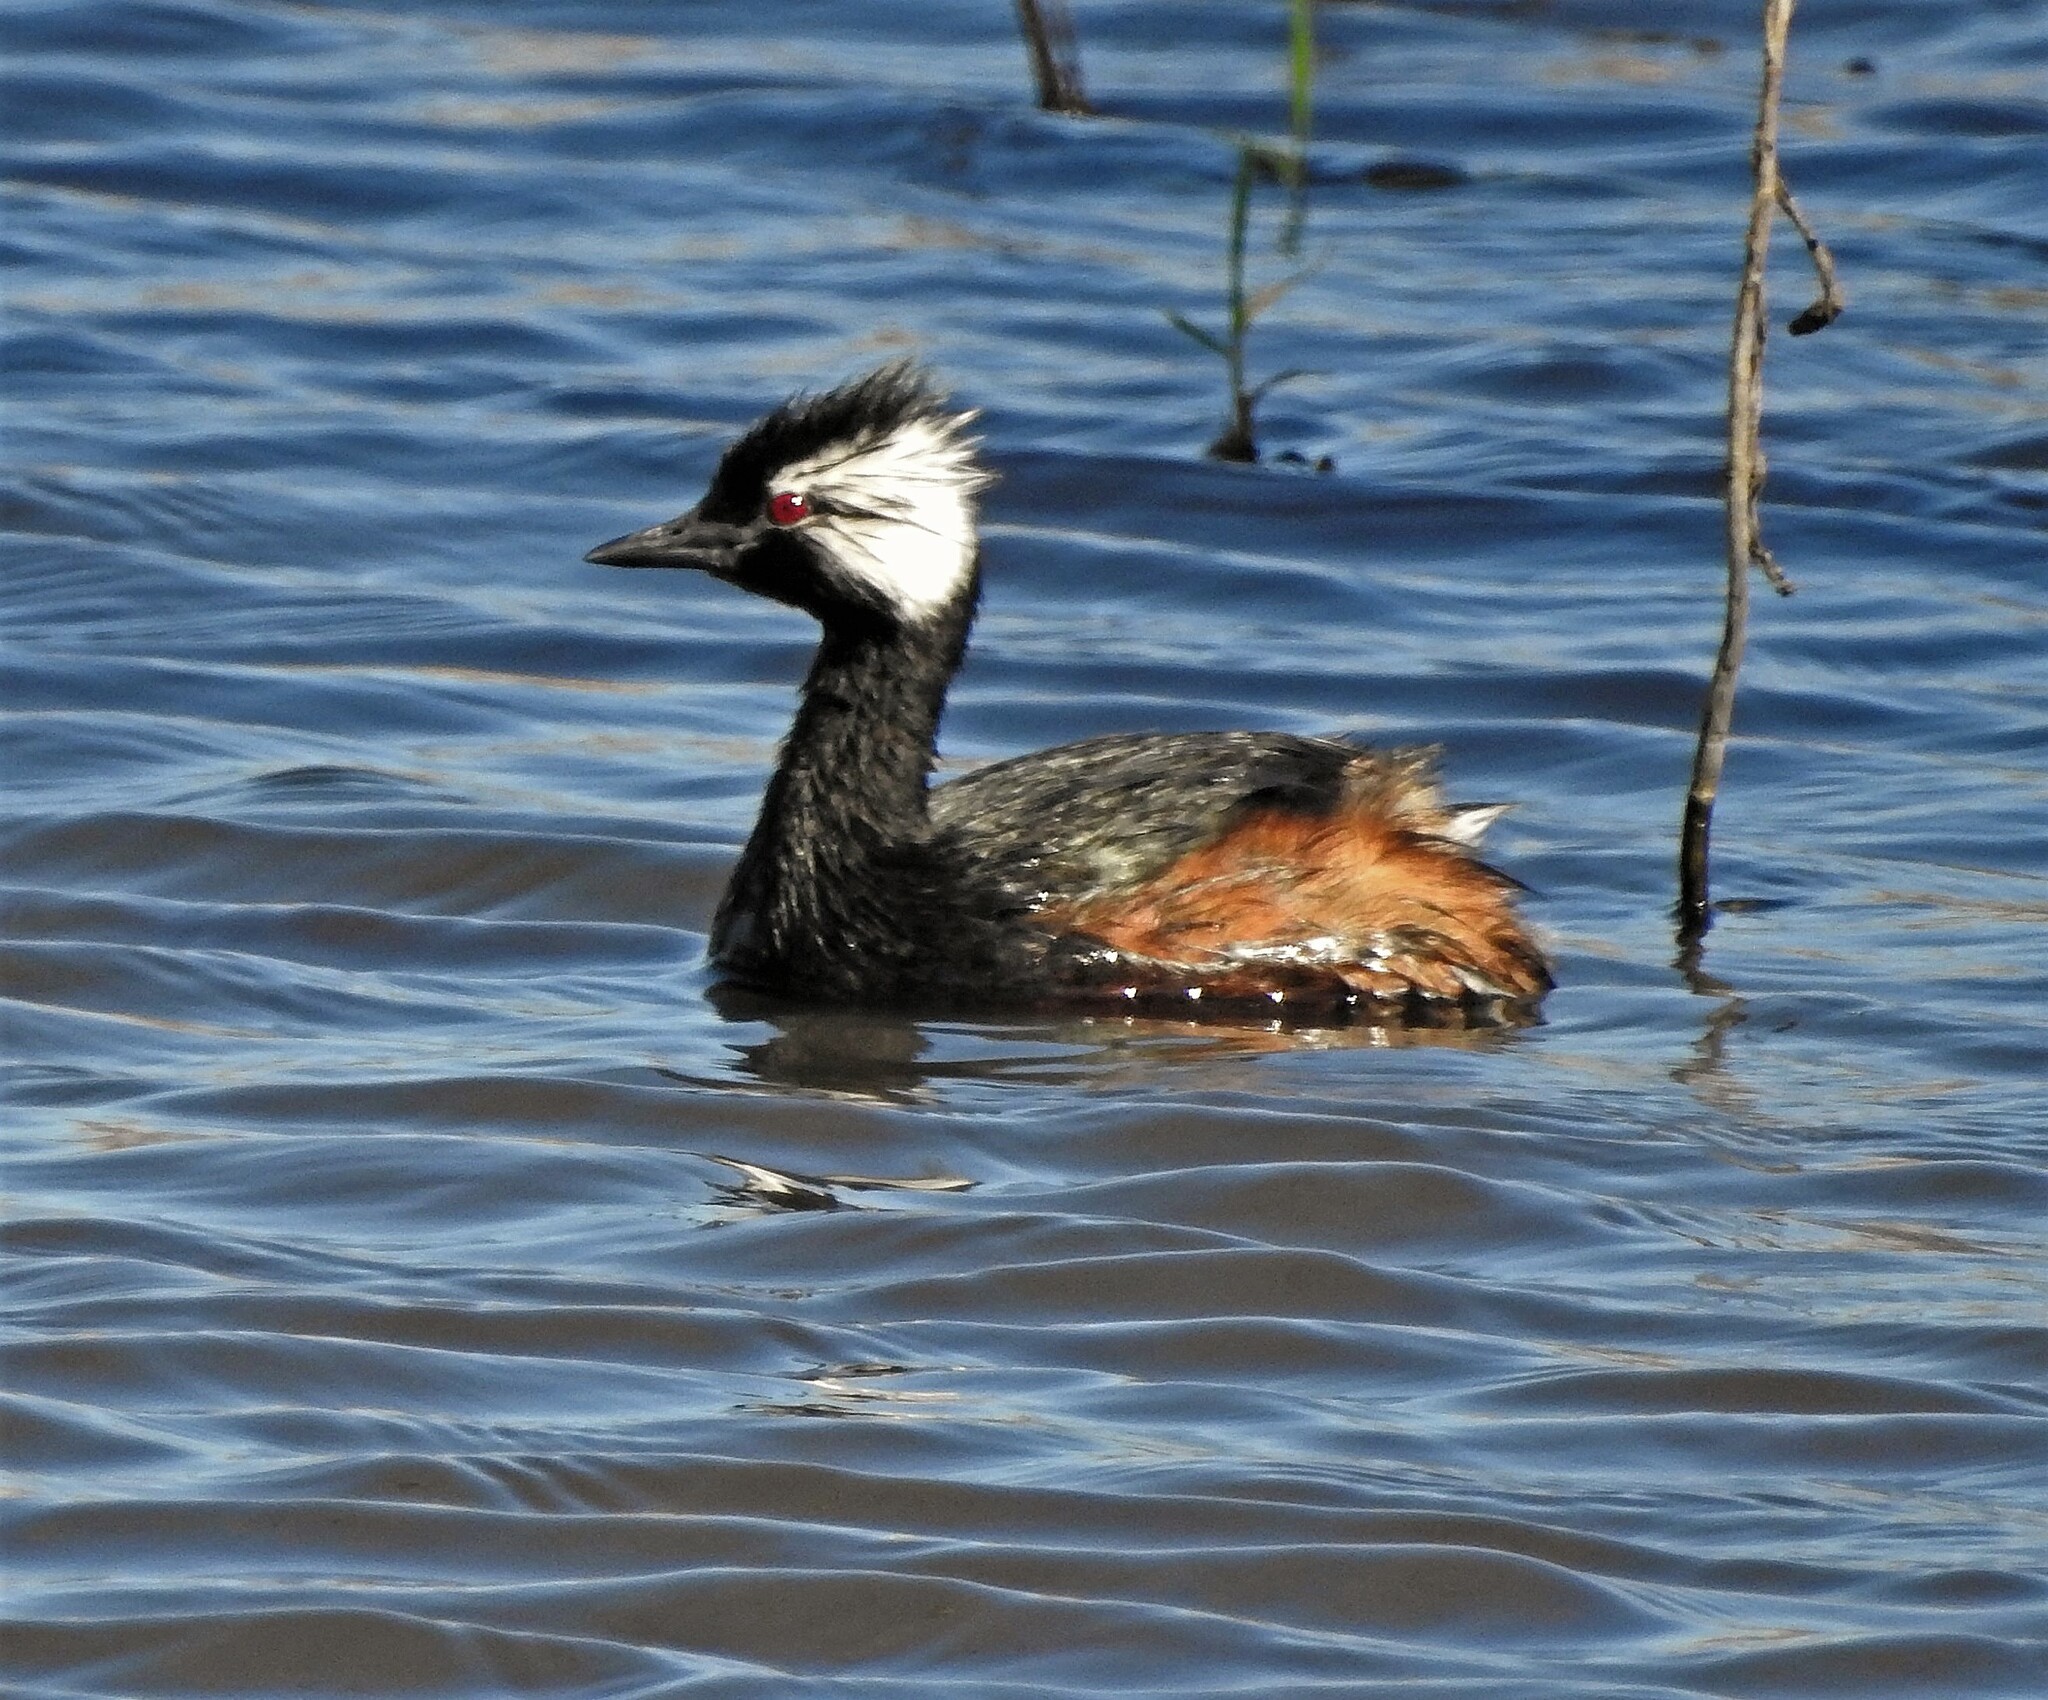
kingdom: Animalia
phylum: Chordata
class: Aves
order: Podicipediformes
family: Podicipedidae
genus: Rollandia
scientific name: Rollandia rolland
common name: White-tufted grebe
